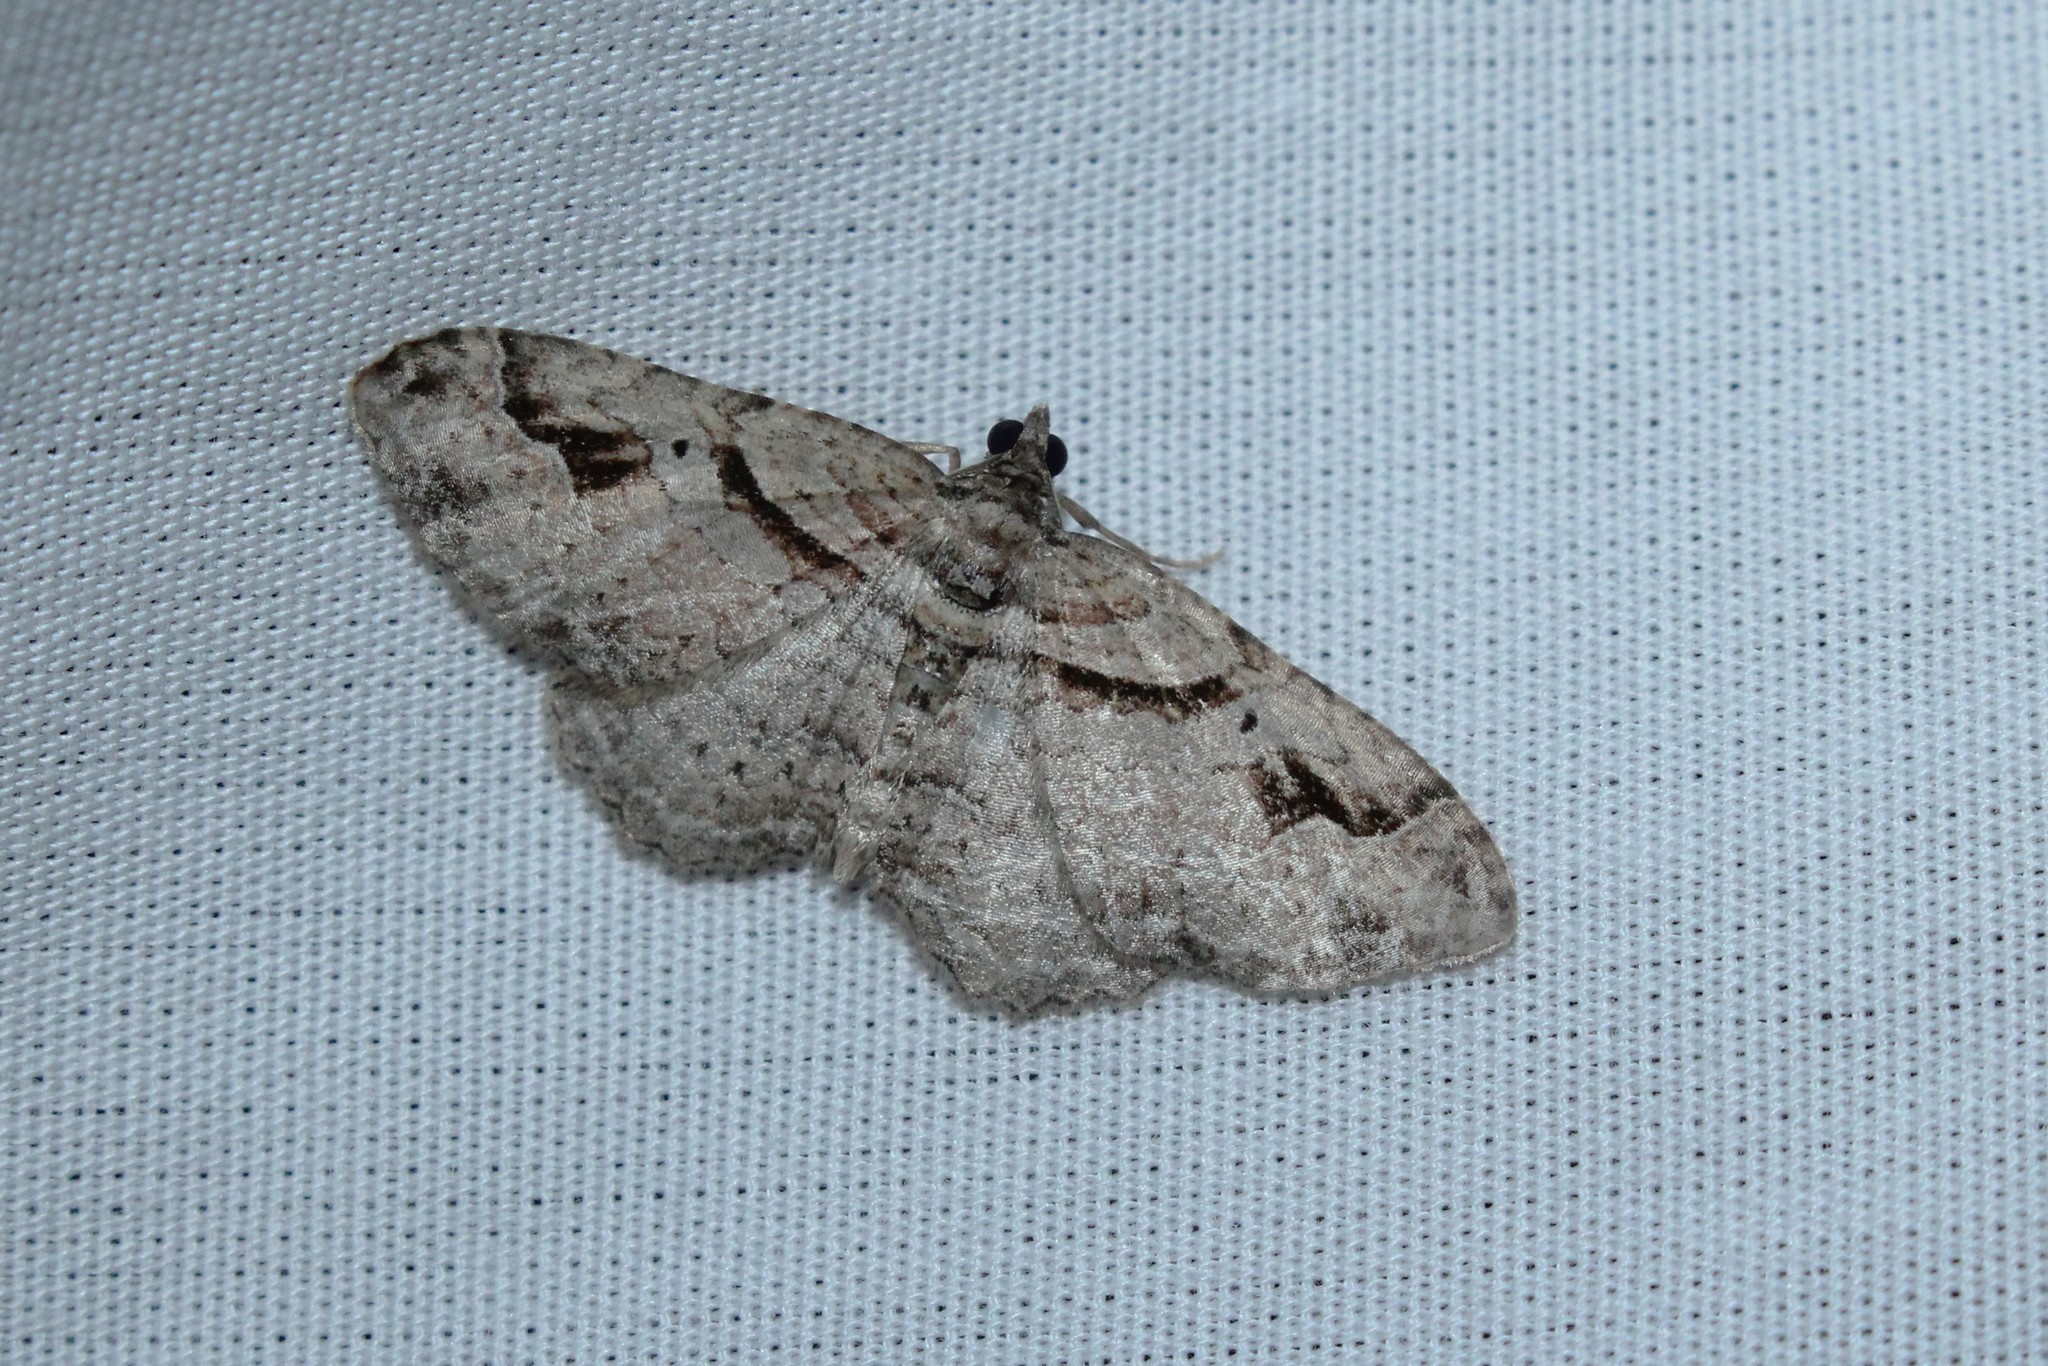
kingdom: Animalia
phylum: Arthropoda
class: Insecta
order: Lepidoptera
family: Geometridae
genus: Costaconvexa
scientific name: Costaconvexa centrostrigaria
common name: Bent-line carpet
